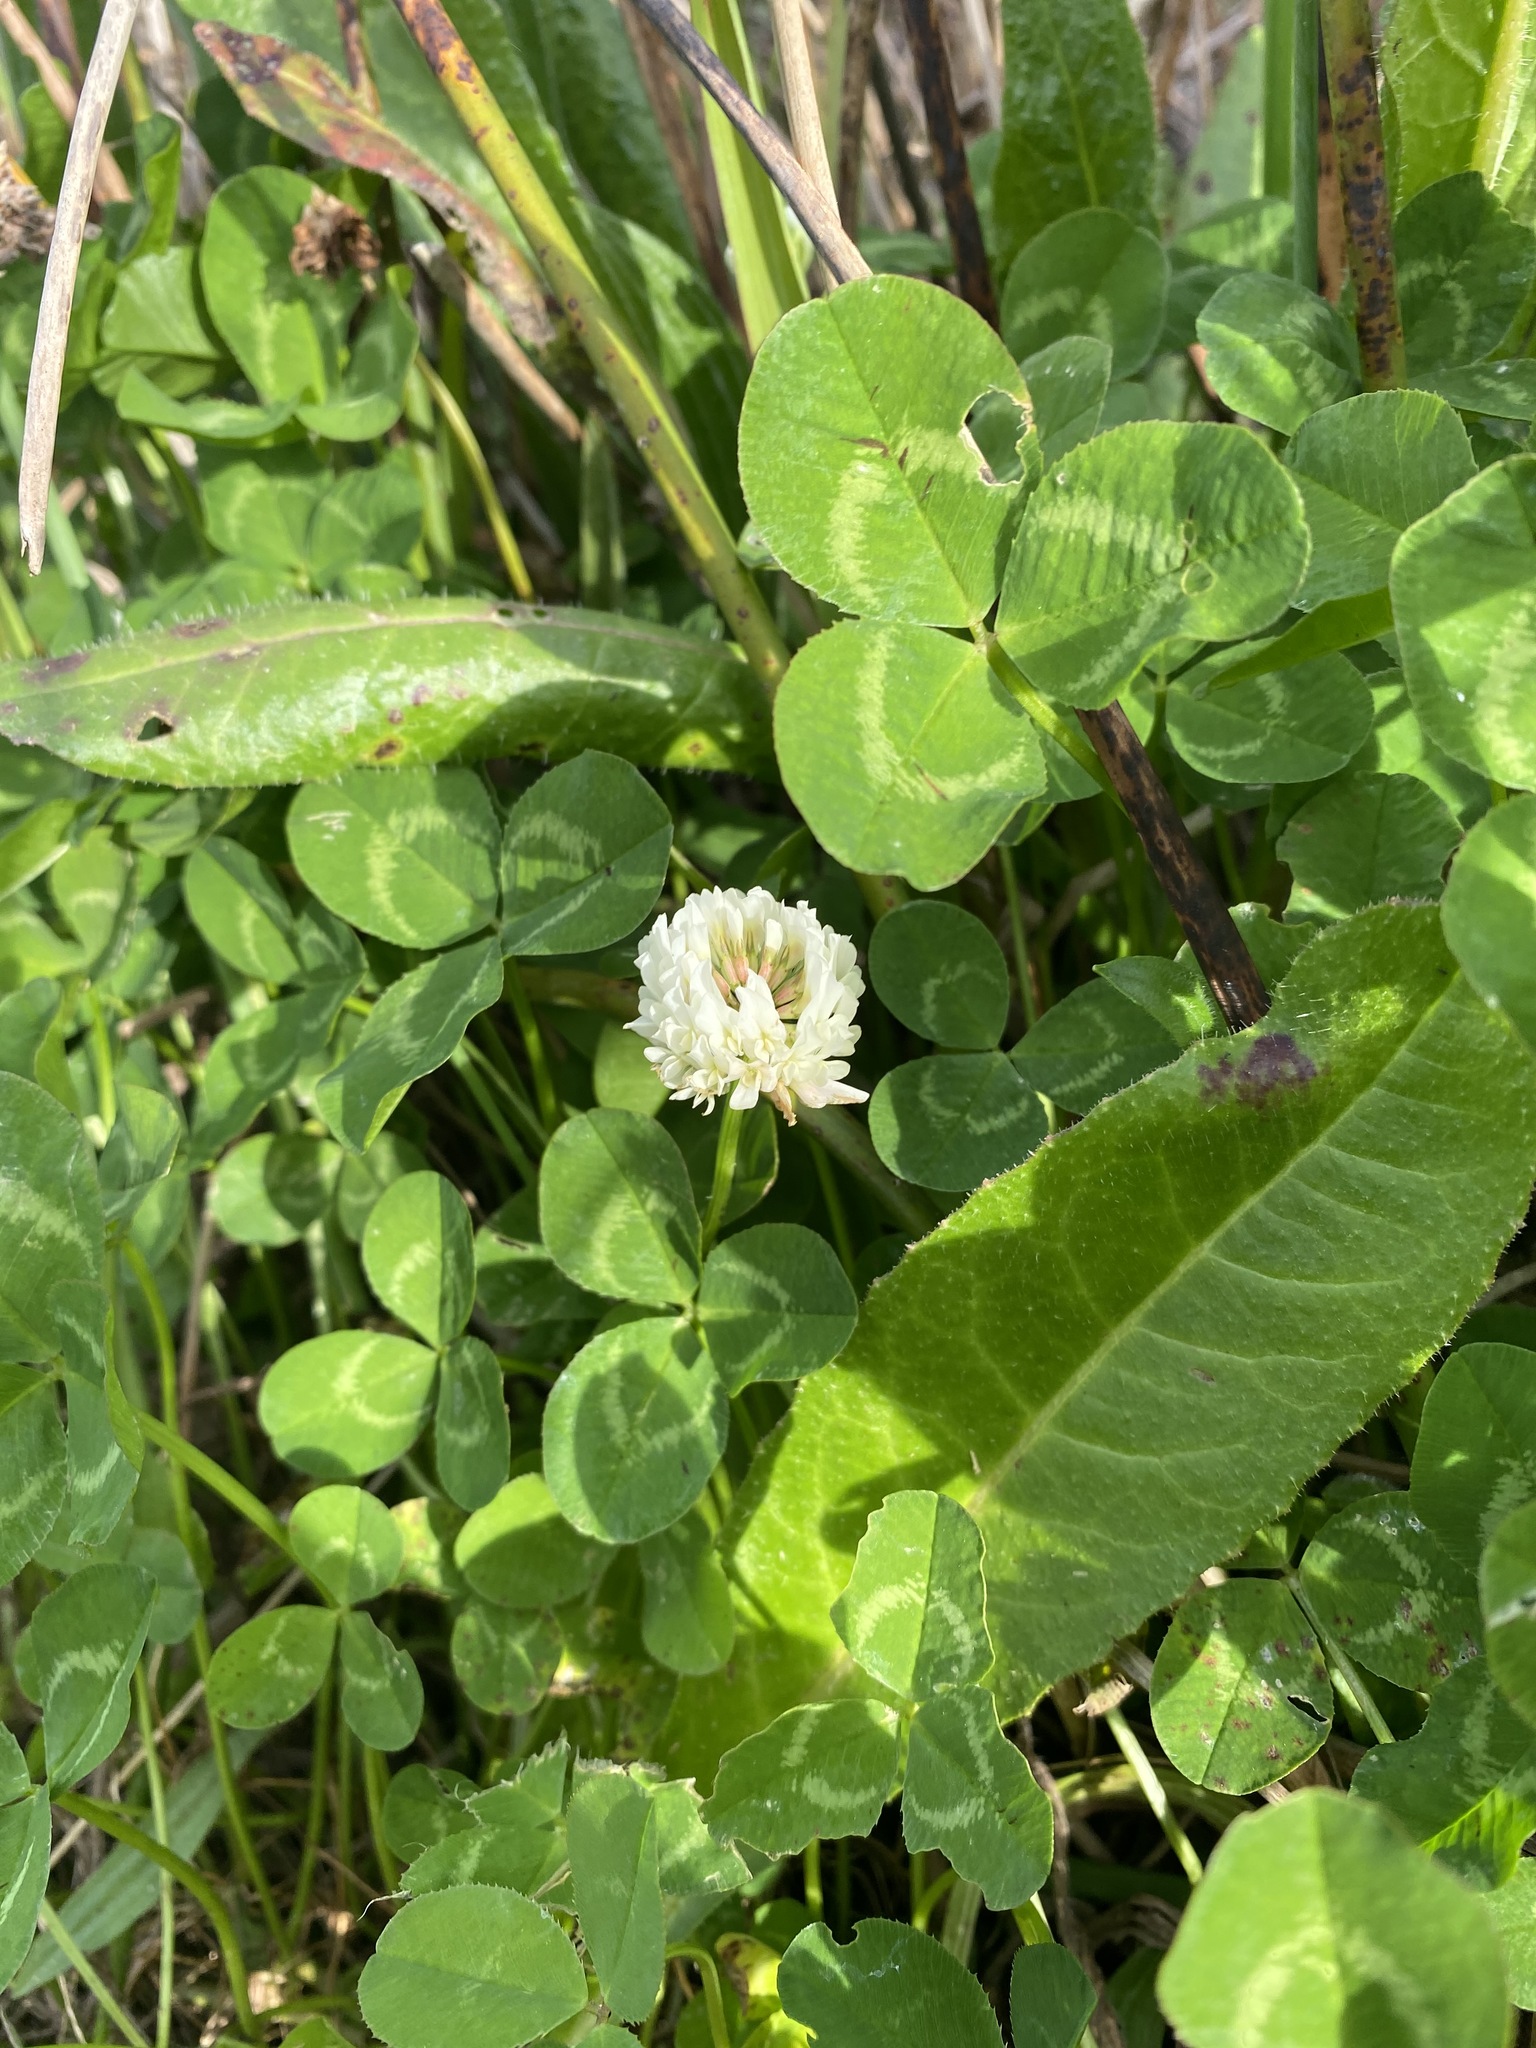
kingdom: Plantae
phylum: Tracheophyta
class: Magnoliopsida
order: Fabales
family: Fabaceae
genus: Trifolium
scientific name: Trifolium repens
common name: White clover
